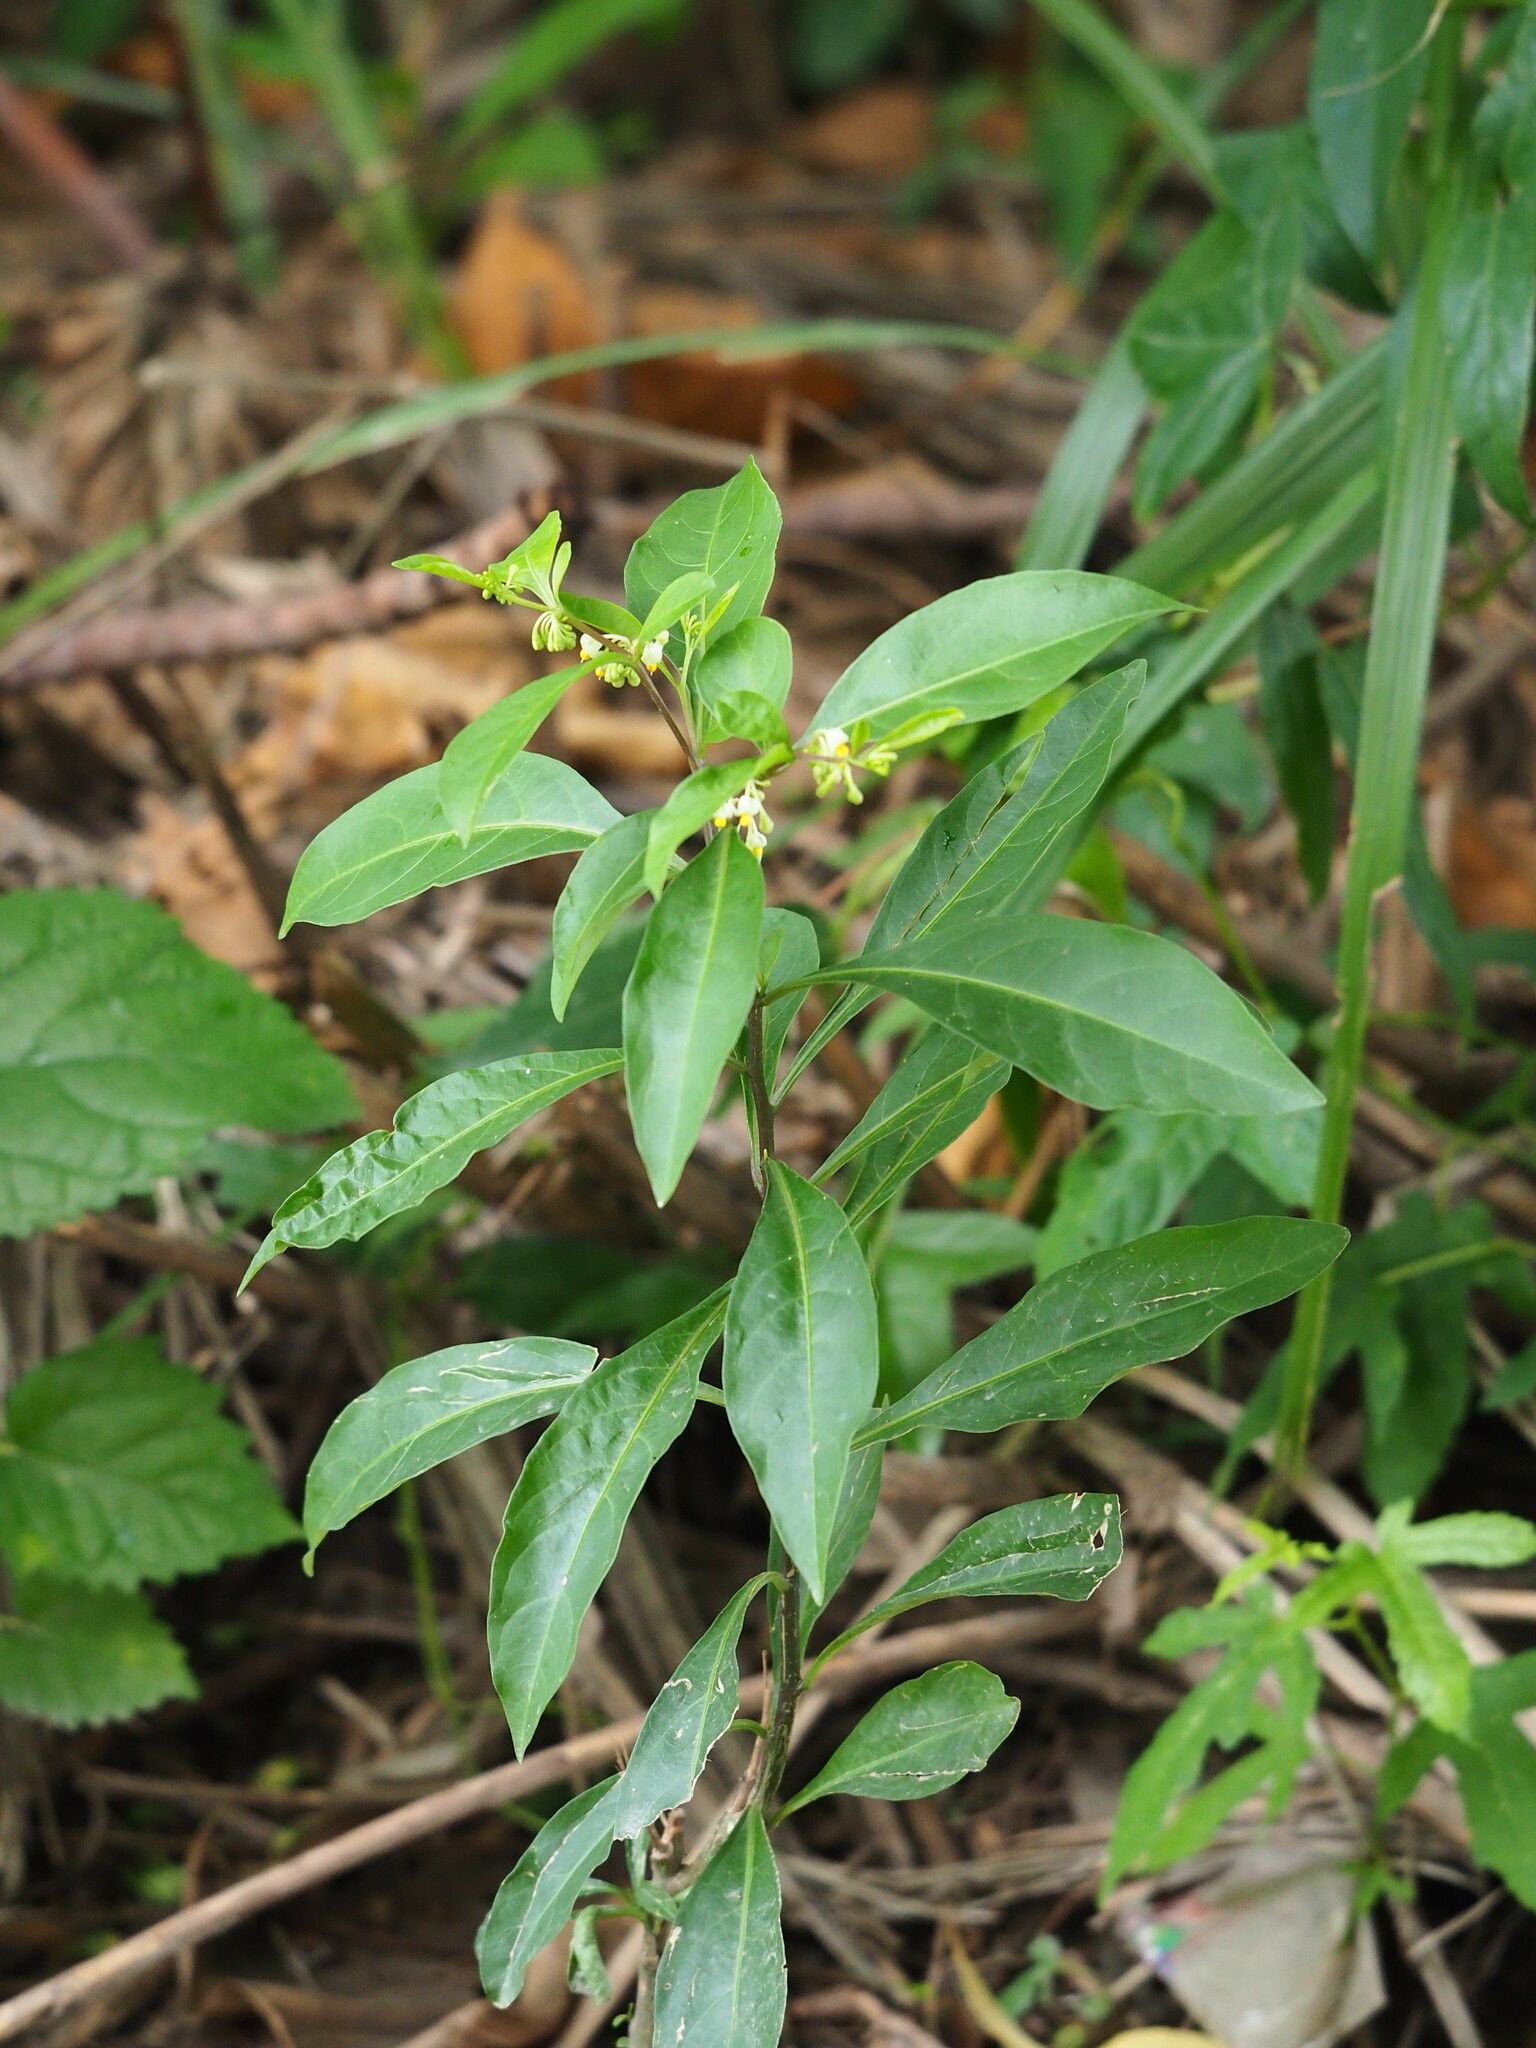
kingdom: Plantae
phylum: Tracheophyta
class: Magnoliopsida
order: Solanales
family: Solanaceae
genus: Solanum
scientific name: Solanum diphyllum
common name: Twoleaf nightshade
